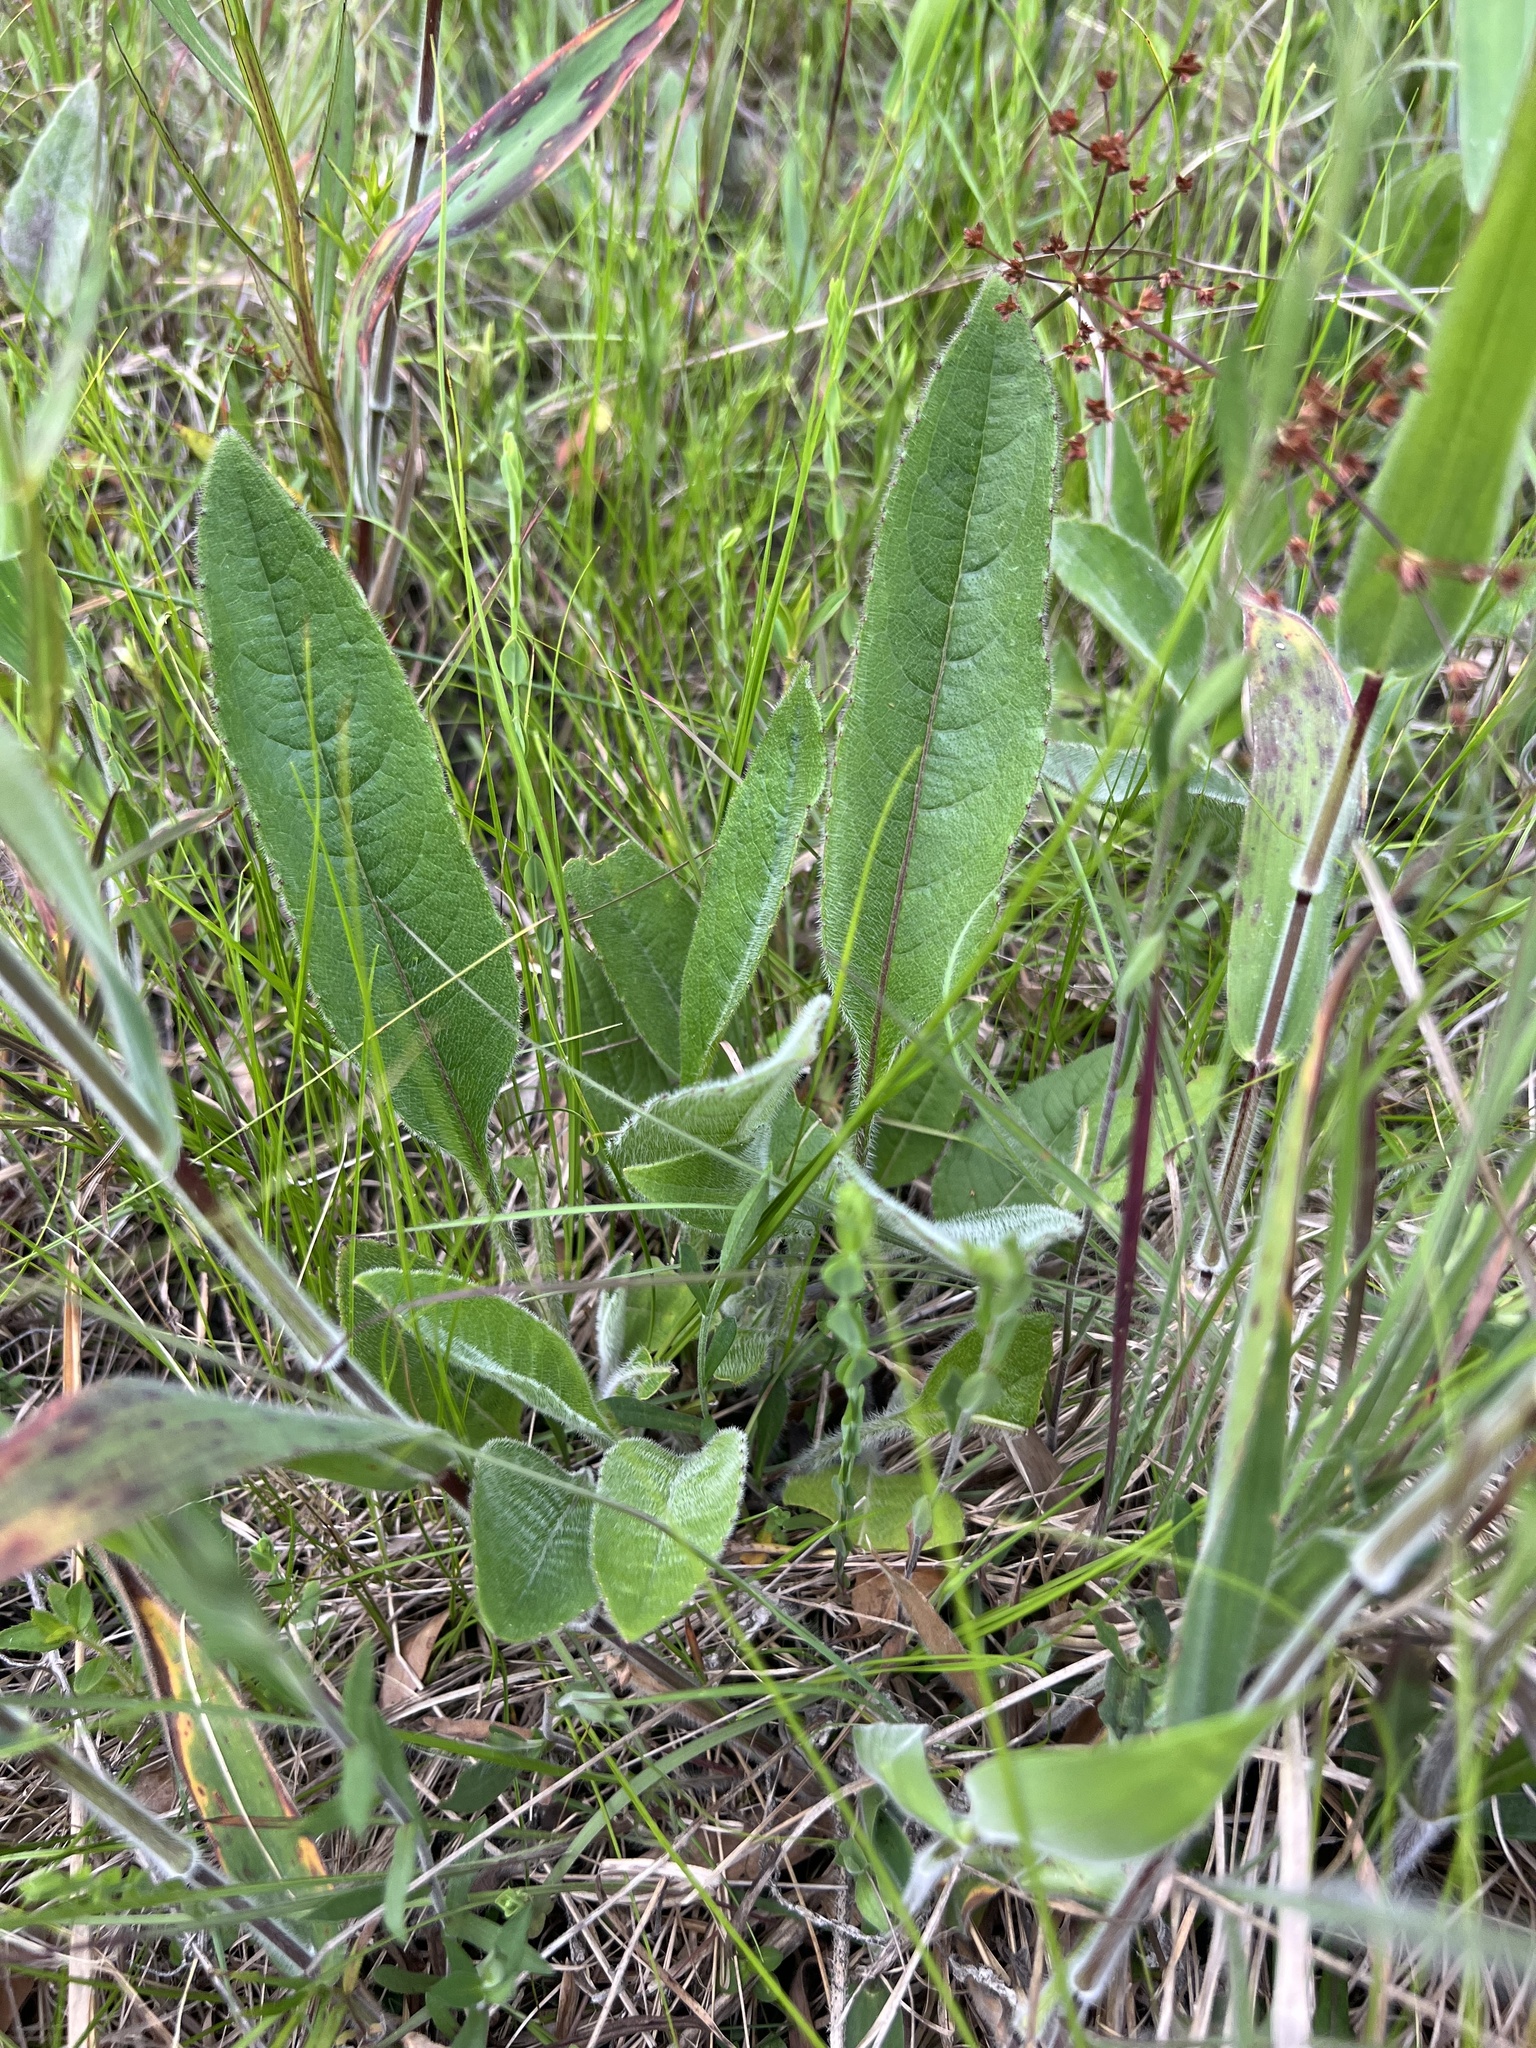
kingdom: Plantae
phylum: Tracheophyta
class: Magnoliopsida
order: Asterales
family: Asteraceae
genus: Silphium
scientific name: Silphium mohrii
